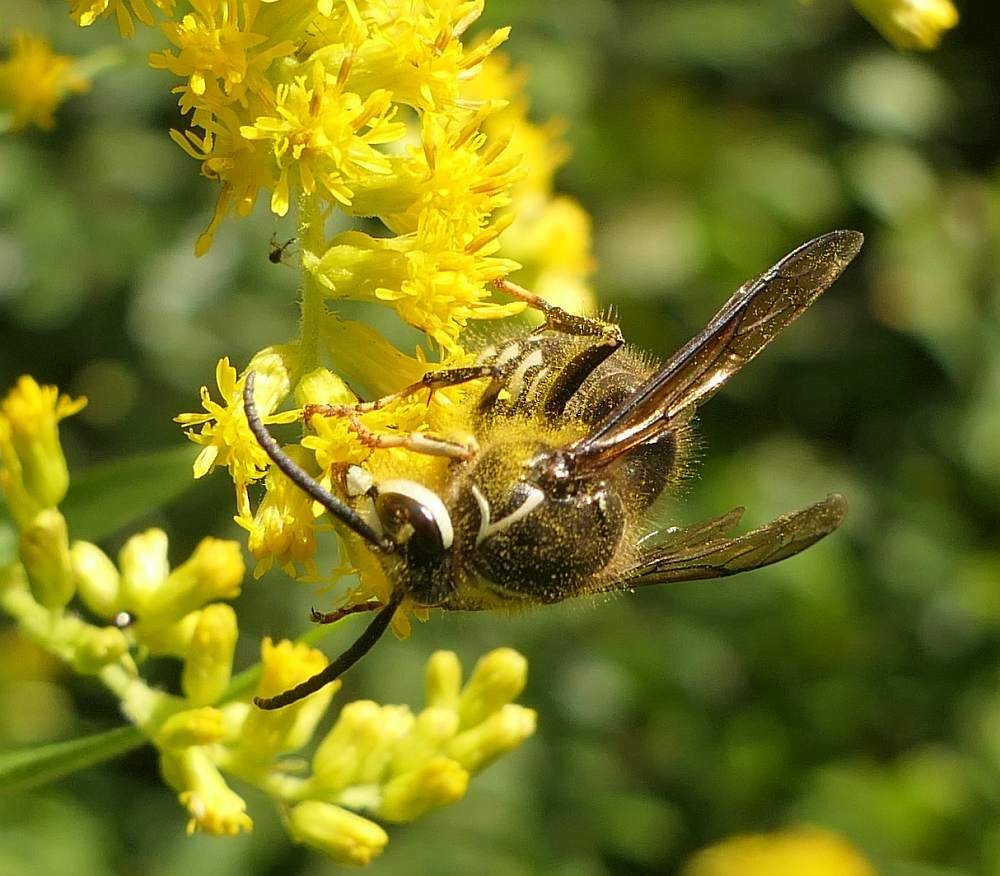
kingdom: Animalia
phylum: Arthropoda
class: Insecta
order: Hymenoptera
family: Vespidae
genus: Dolichovespula
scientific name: Dolichovespula maculata
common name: Bald-faced hornet
